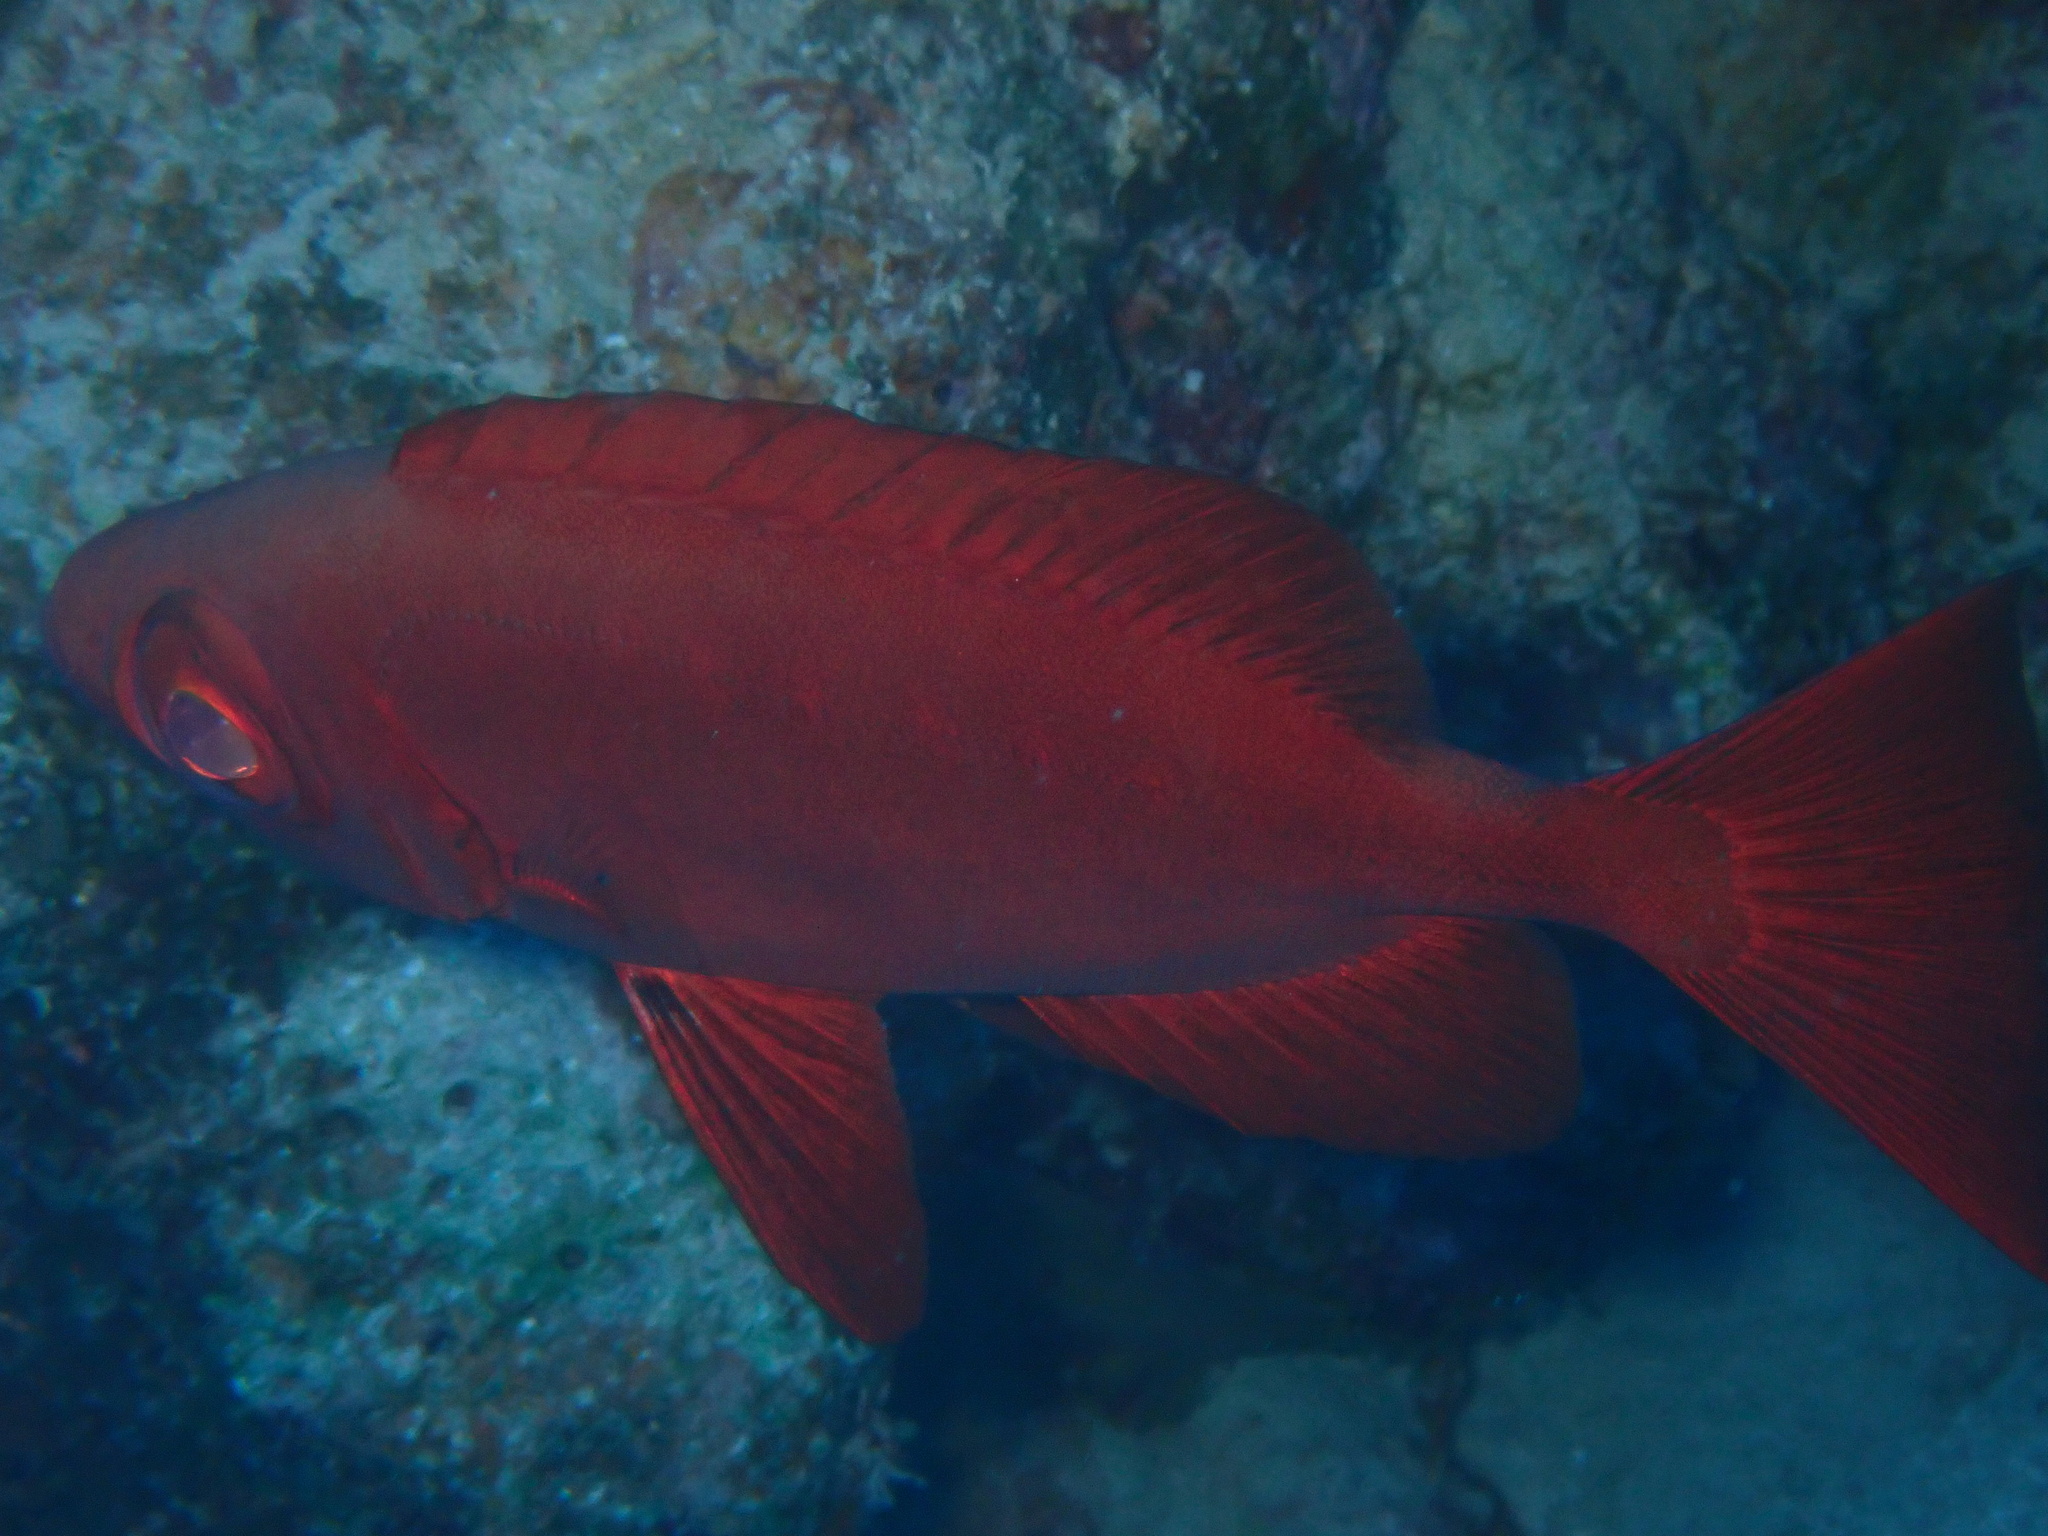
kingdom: Animalia
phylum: Chordata
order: Perciformes
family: Priacanthidae
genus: Priacanthus
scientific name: Priacanthus hamrur
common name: Moontail bullseye
